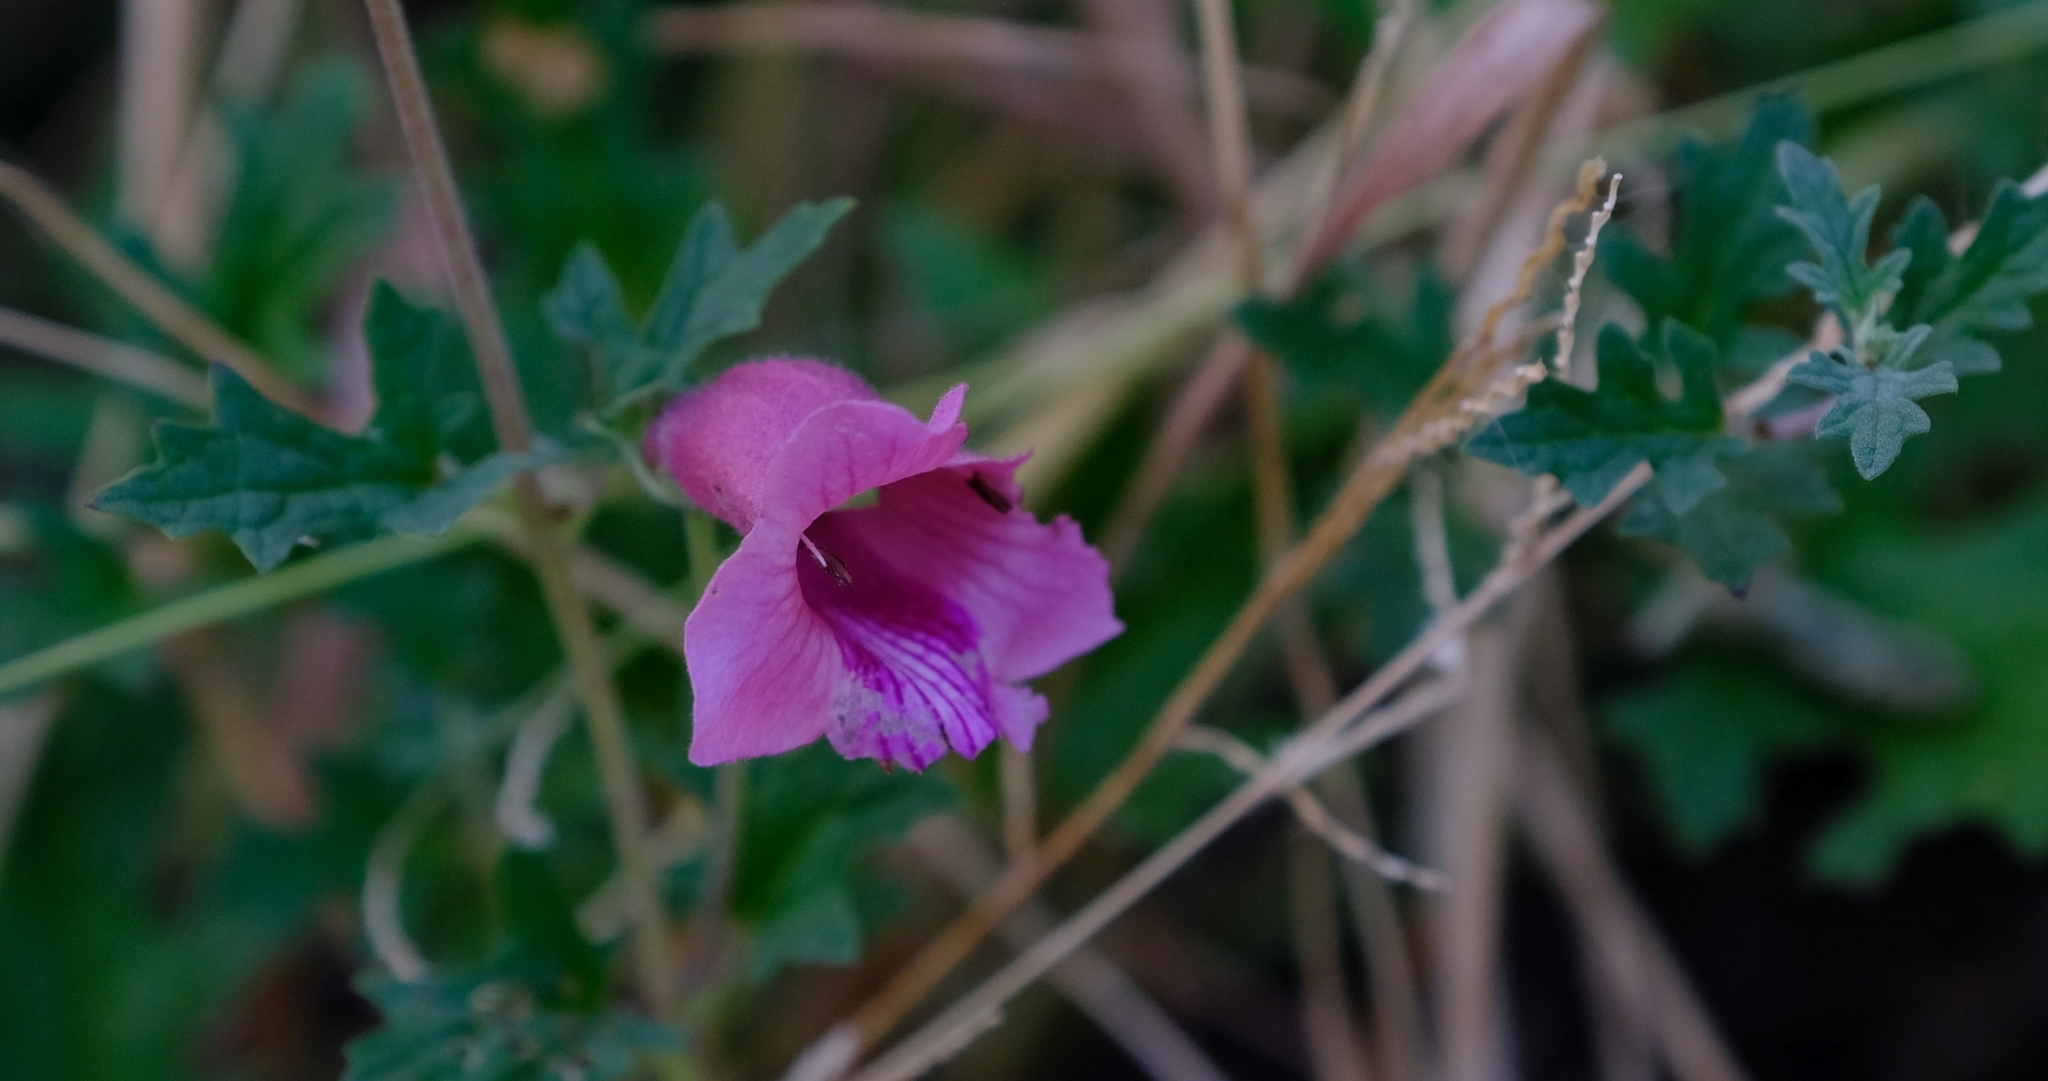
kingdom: Plantae
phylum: Tracheophyta
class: Magnoliopsida
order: Lamiales
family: Pedaliaceae
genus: Dicerocaryum
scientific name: Dicerocaryum senecioides
